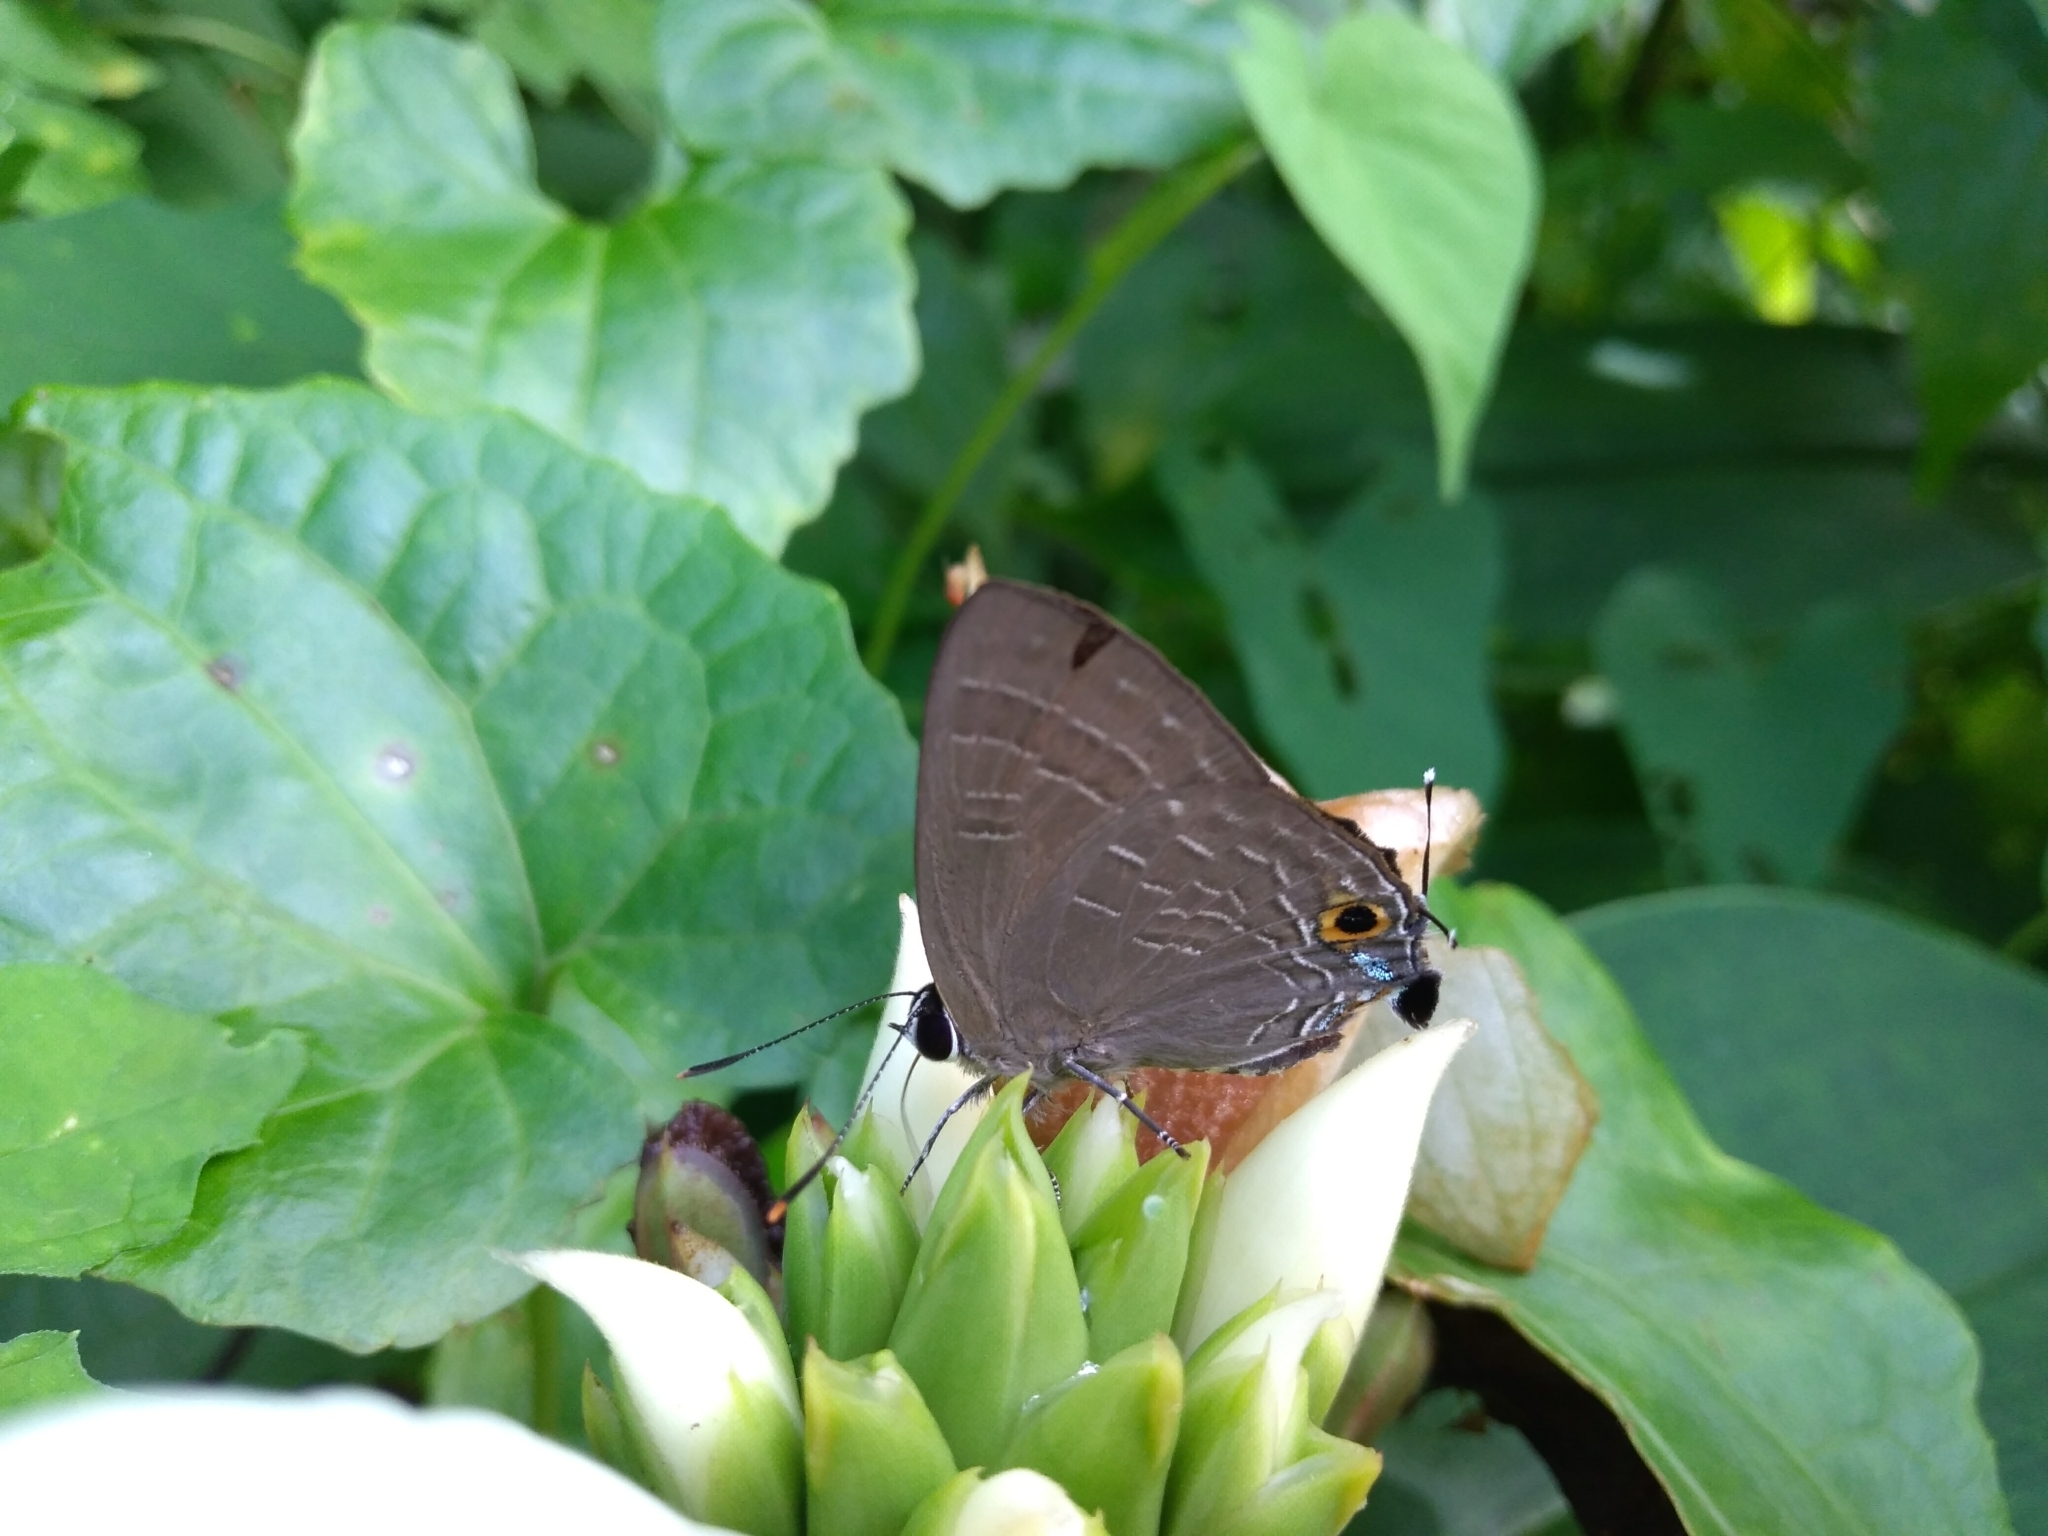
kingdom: Animalia
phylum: Arthropoda
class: Insecta
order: Lepidoptera
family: Lycaenidae
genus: Deudorix
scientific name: Deudorix epijarbas
